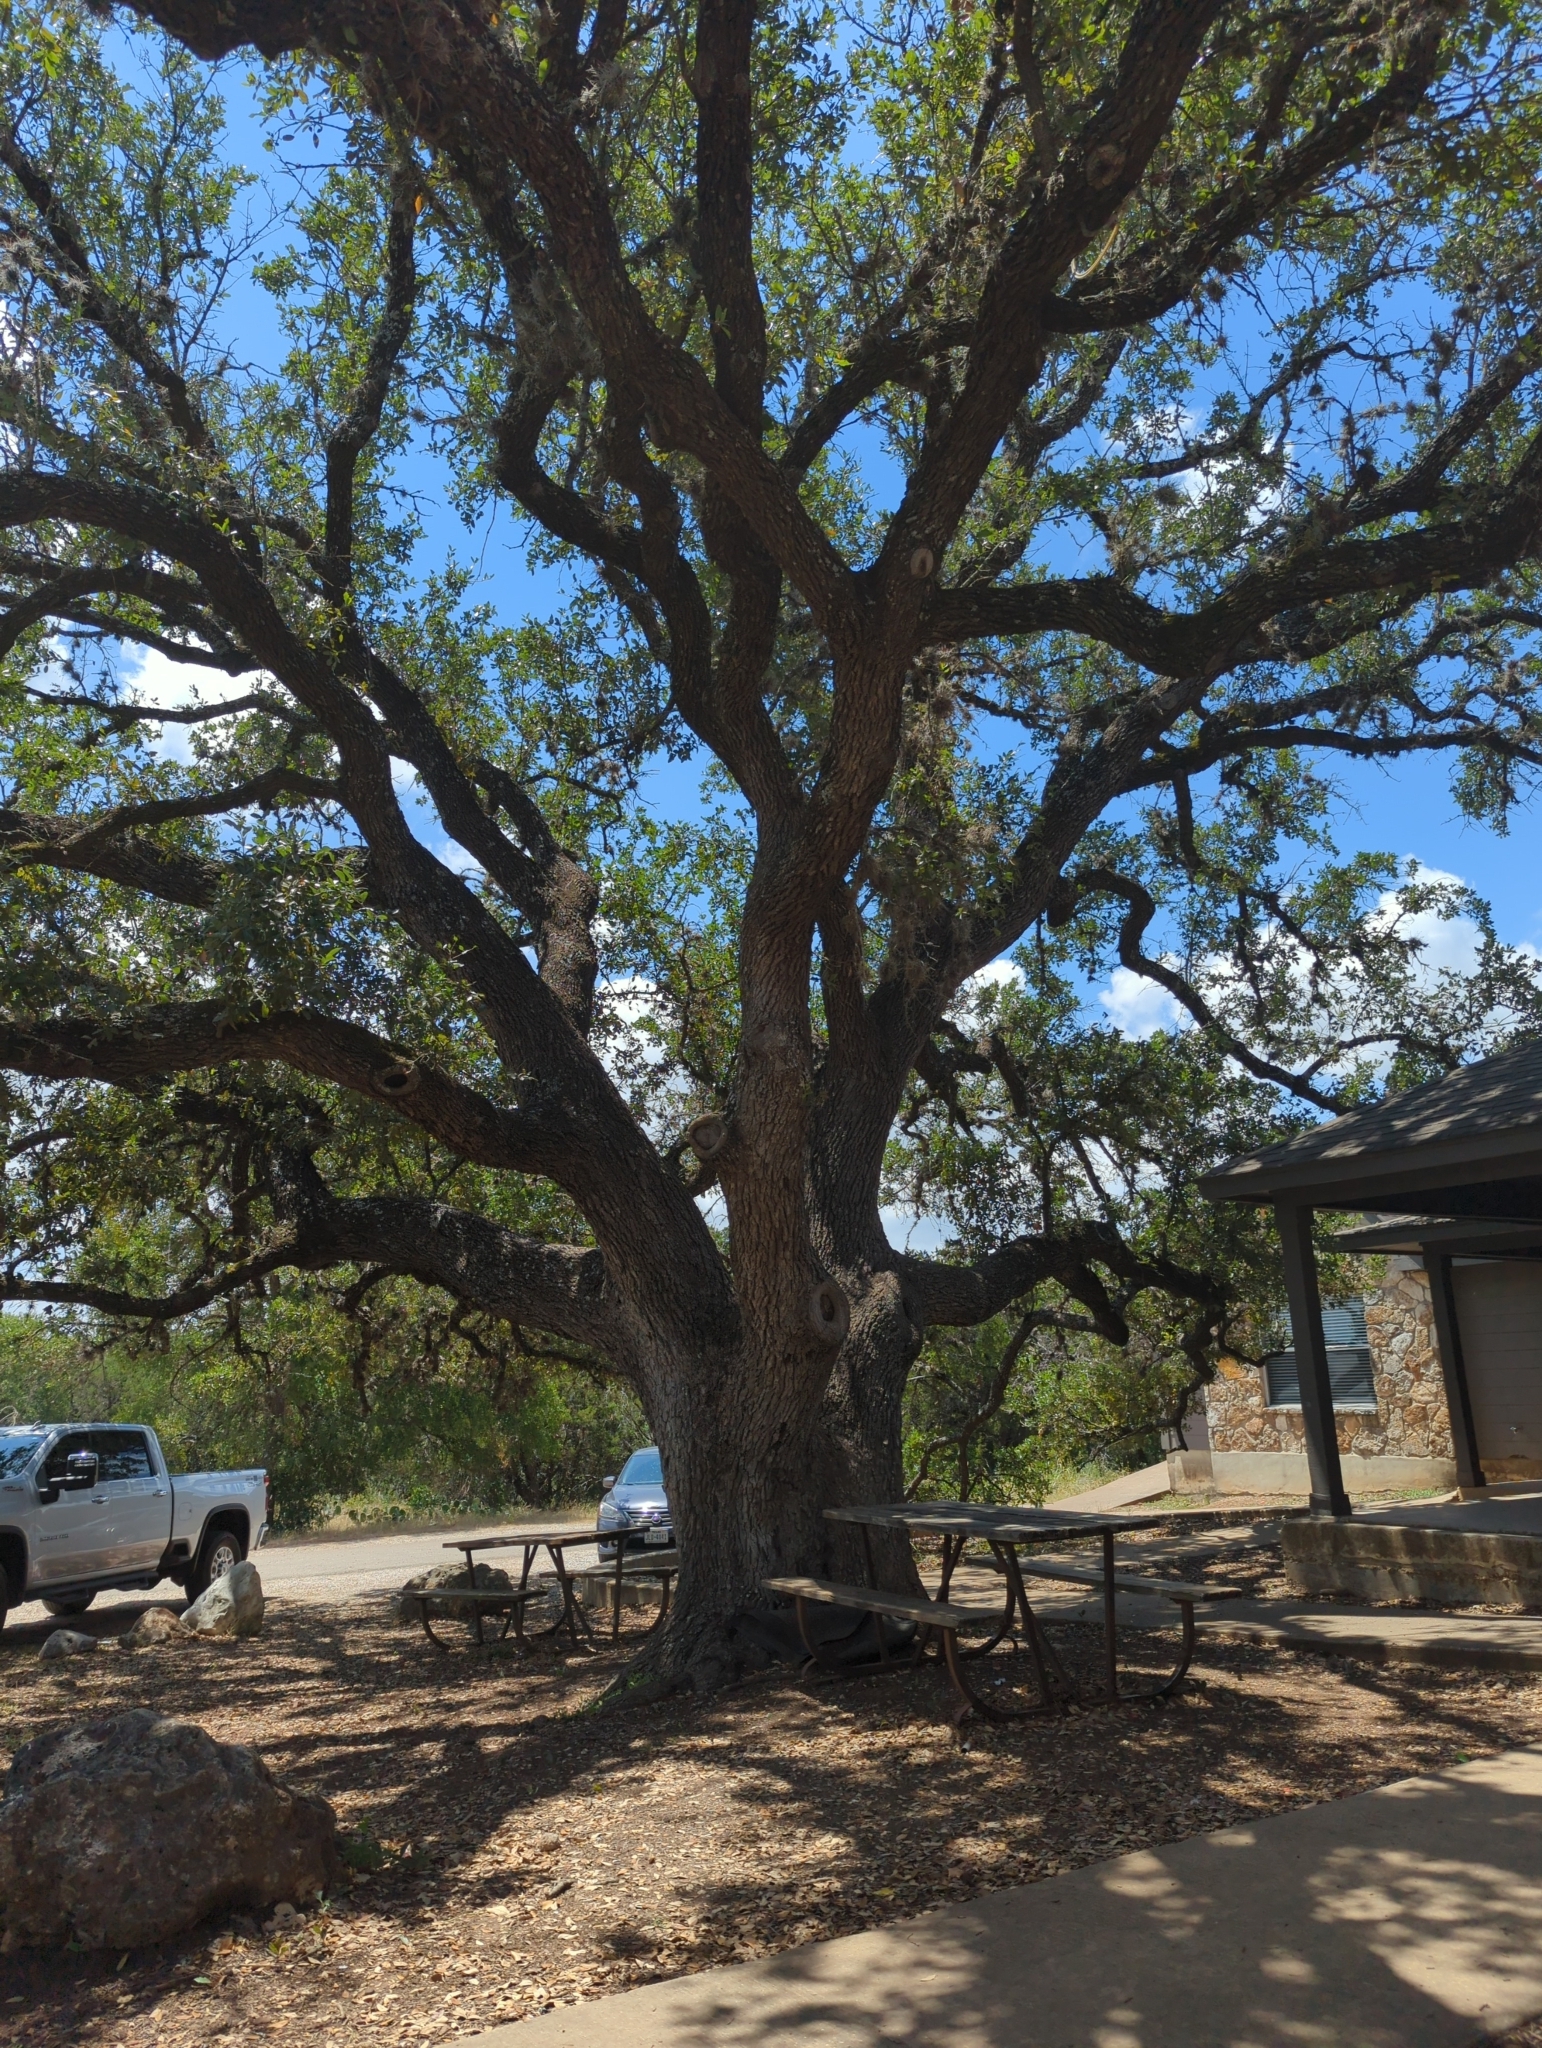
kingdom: Plantae
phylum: Tracheophyta
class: Magnoliopsida
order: Fagales
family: Fagaceae
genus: Quercus
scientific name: Quercus fusiformis
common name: Texas live oak
